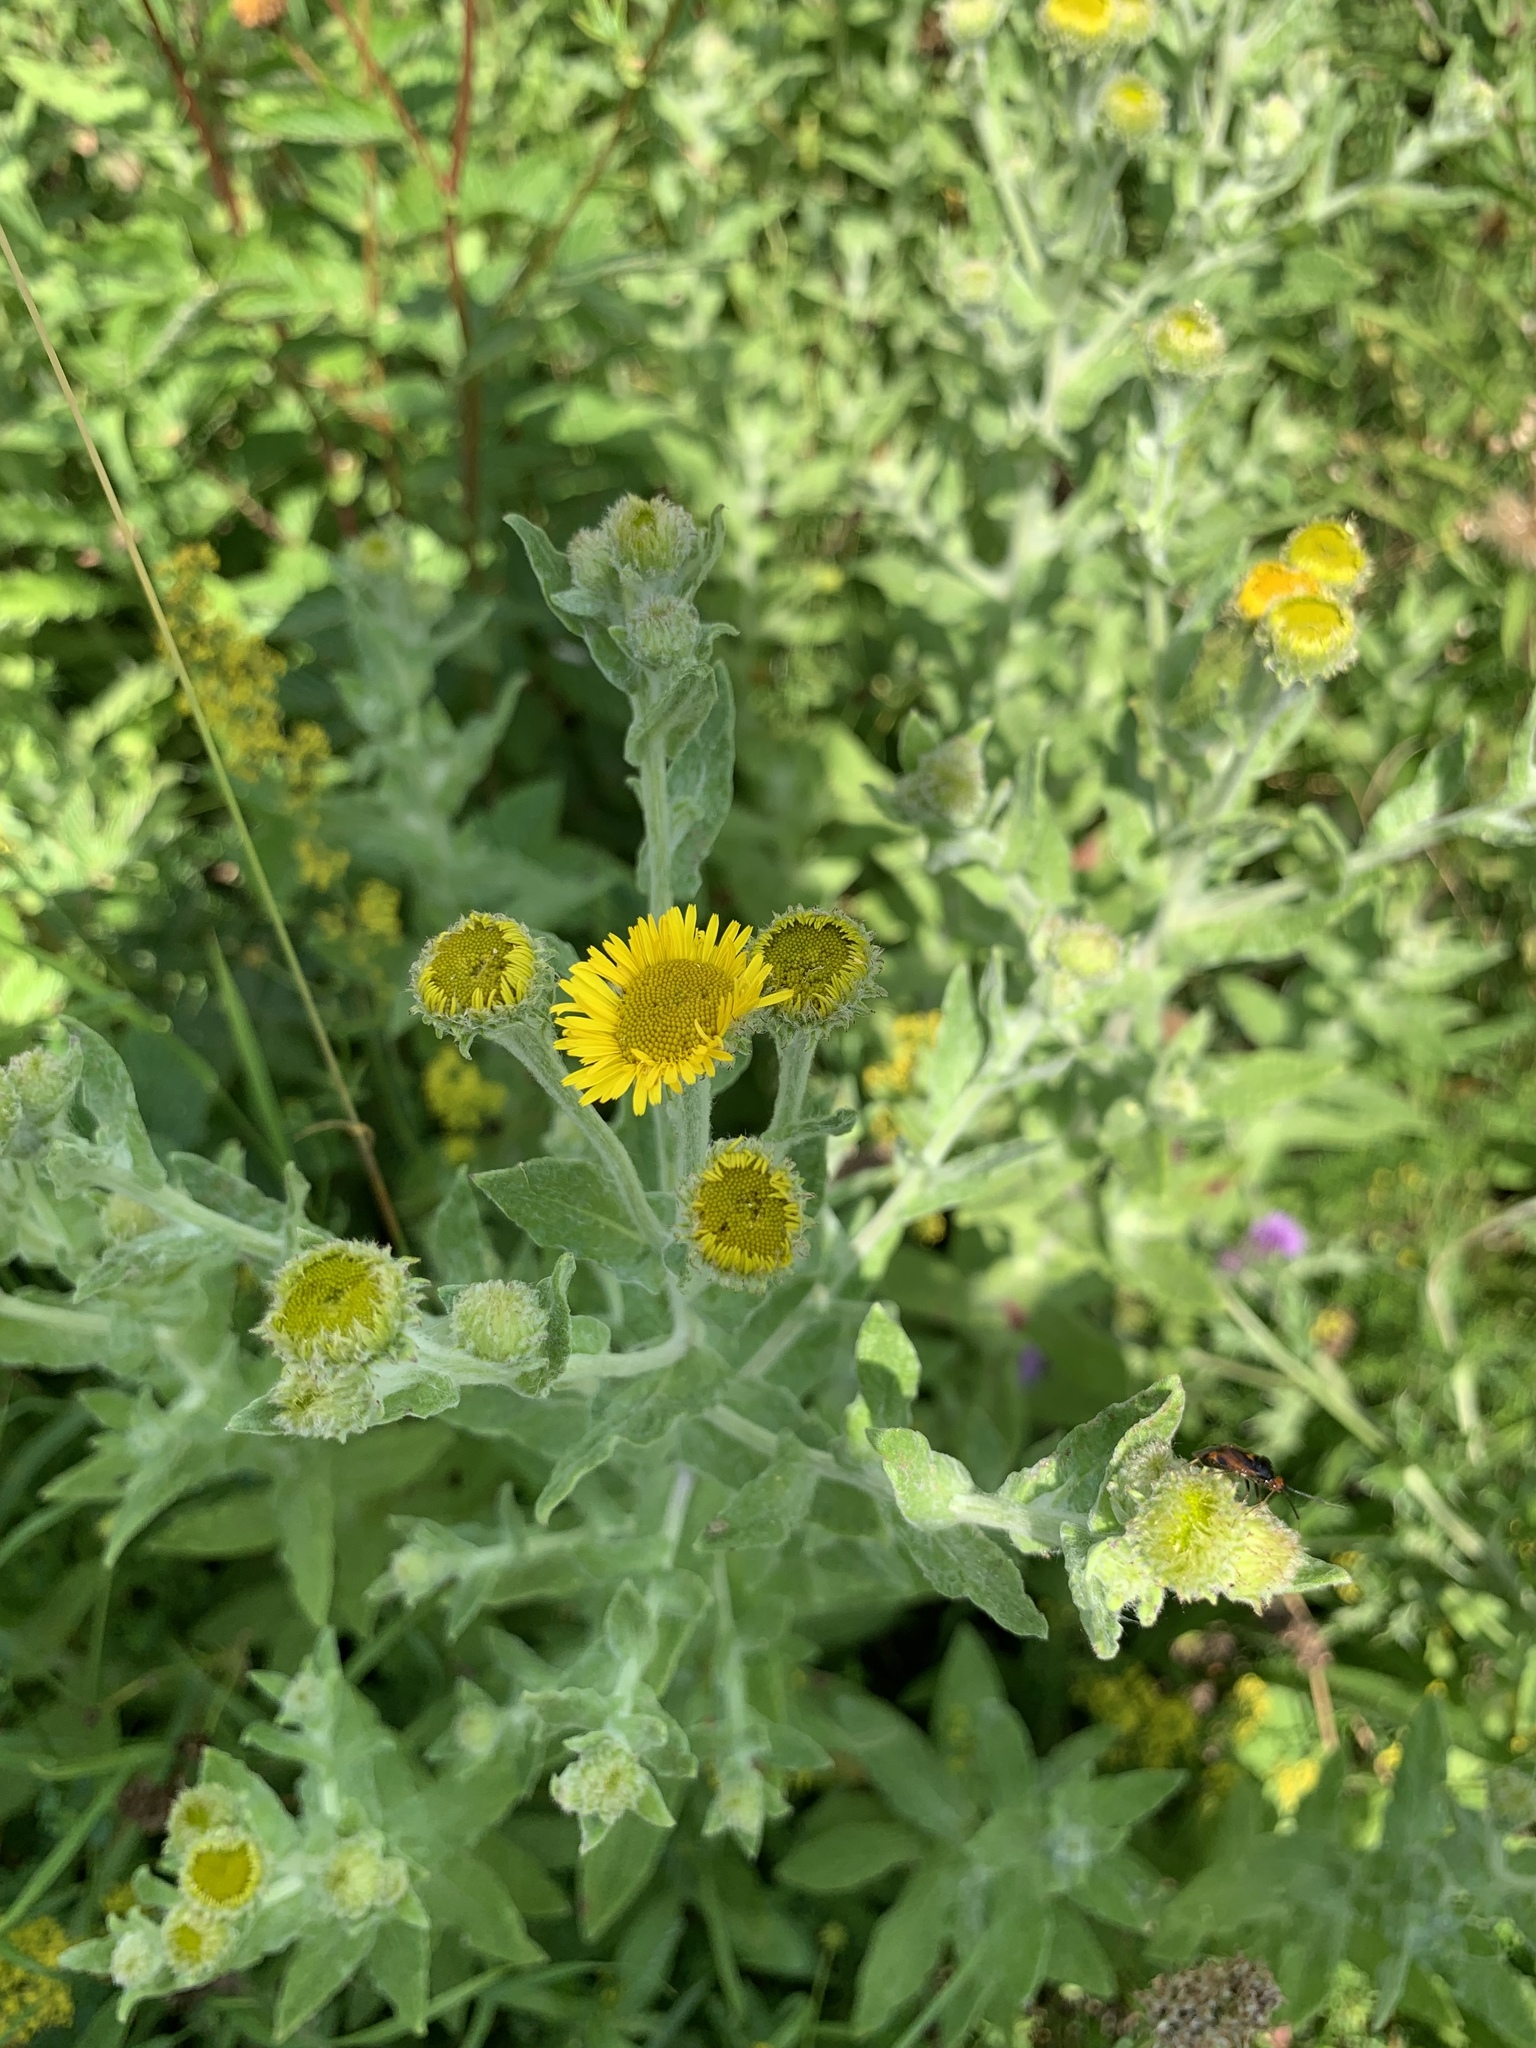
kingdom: Plantae
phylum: Tracheophyta
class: Magnoliopsida
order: Asterales
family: Asteraceae
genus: Pulicaria
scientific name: Pulicaria dysenterica
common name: Common fleabane
